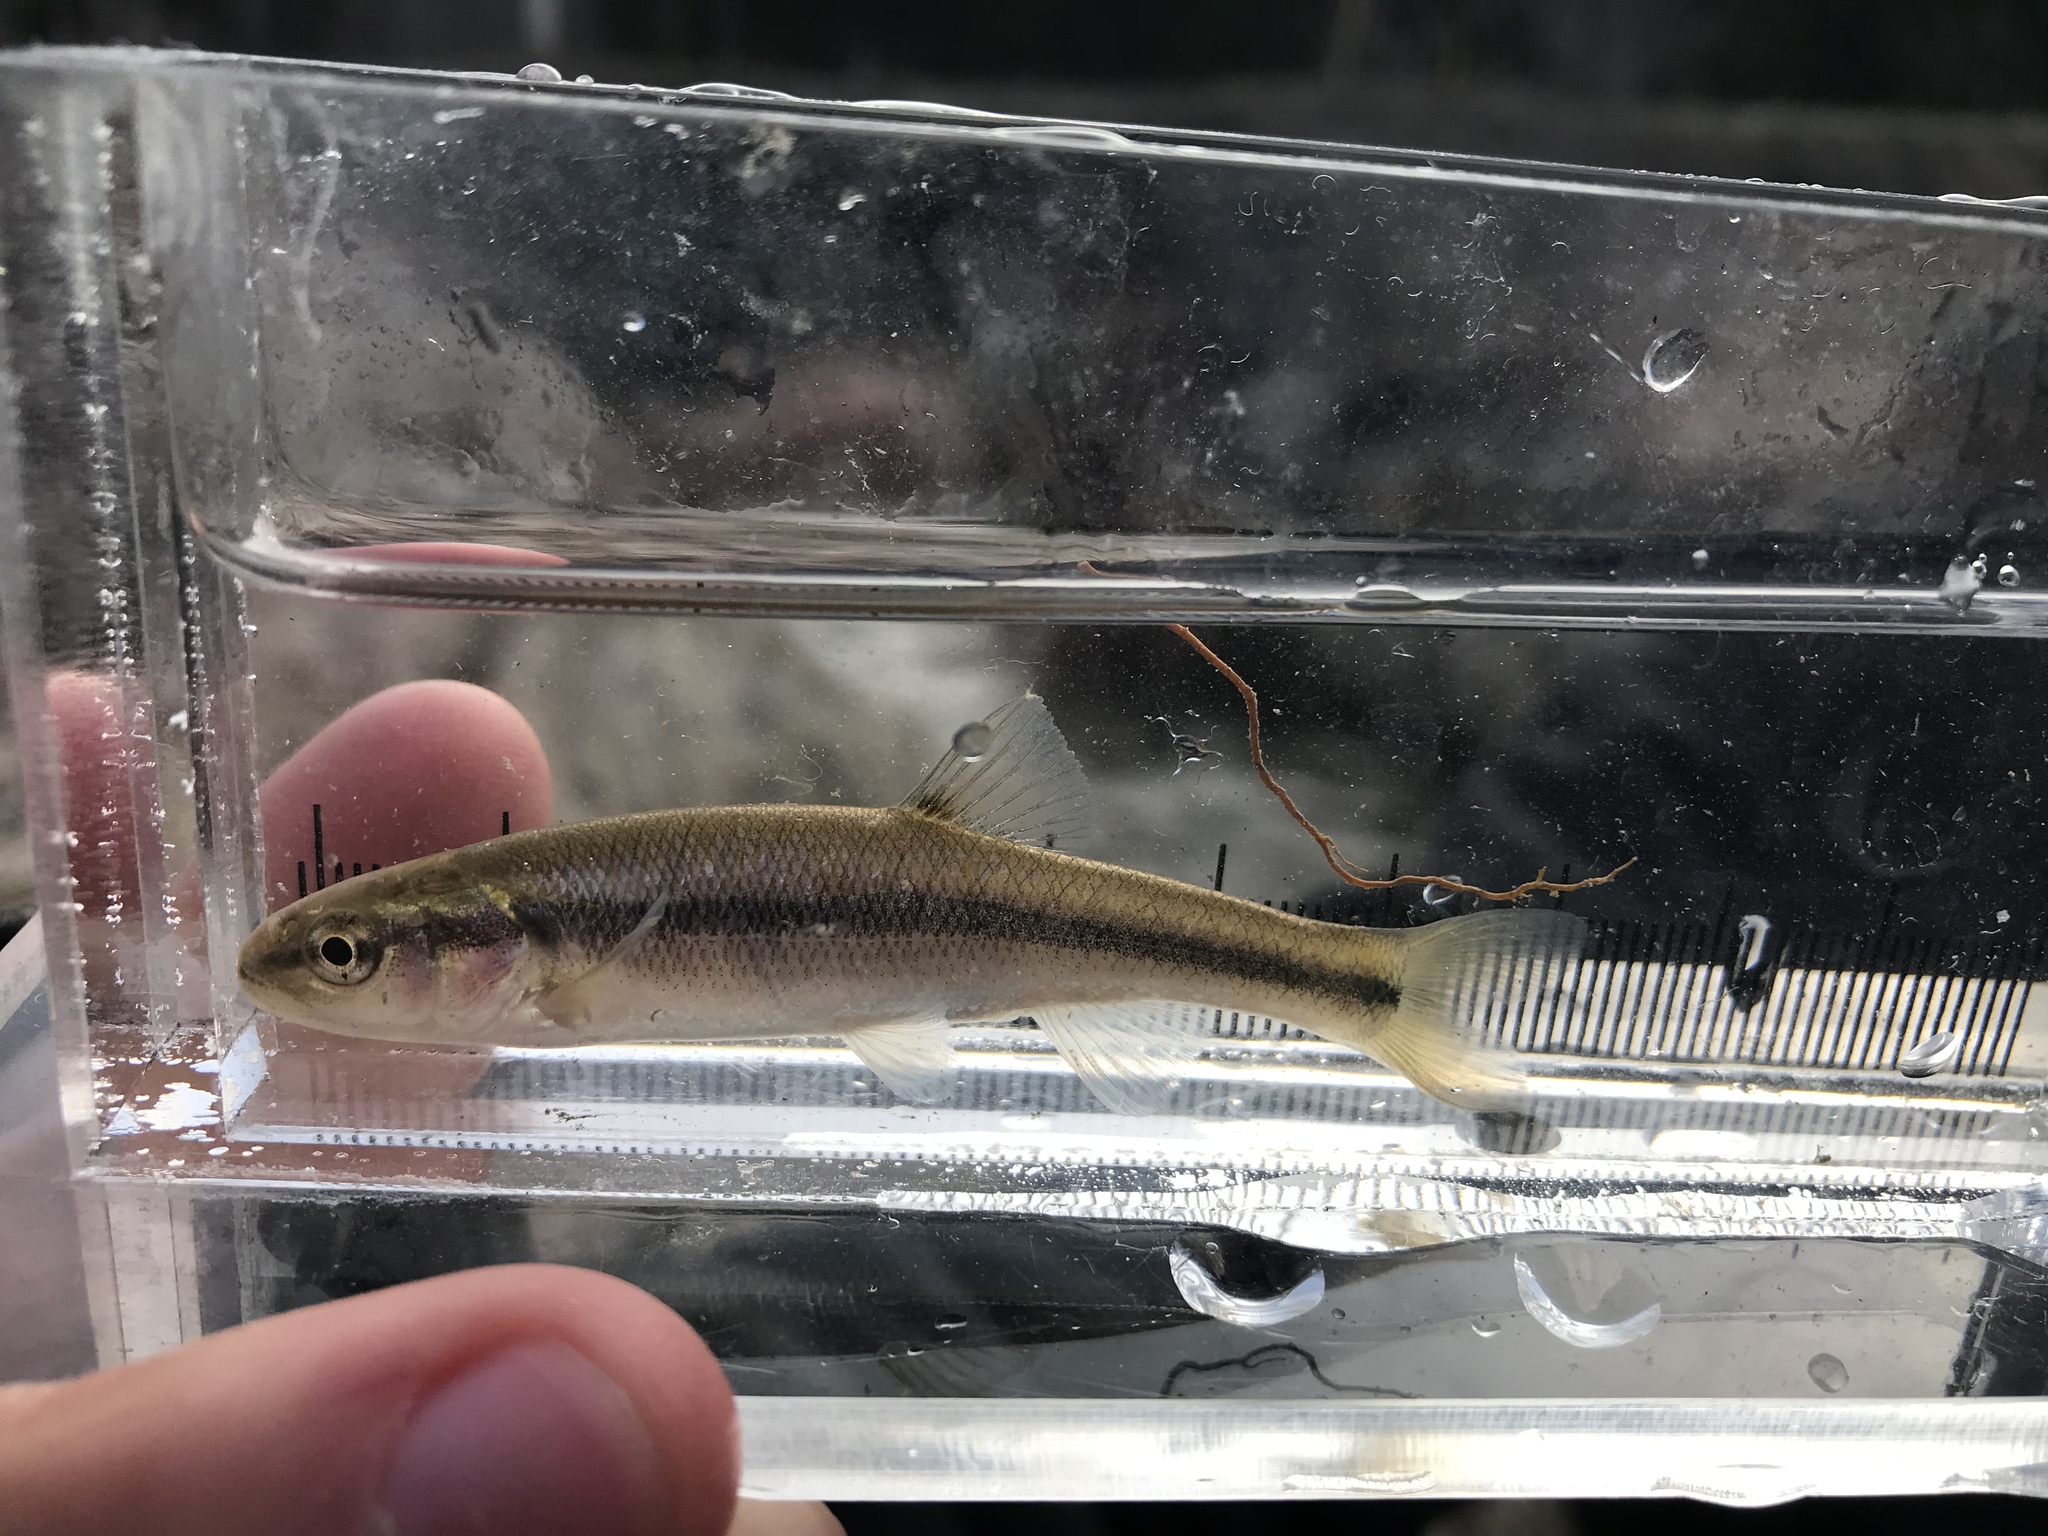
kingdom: Animalia
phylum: Chordata
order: Cypriniformes
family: Cyprinidae
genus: Semotilus
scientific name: Semotilus atromaculatus
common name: Creek chub
